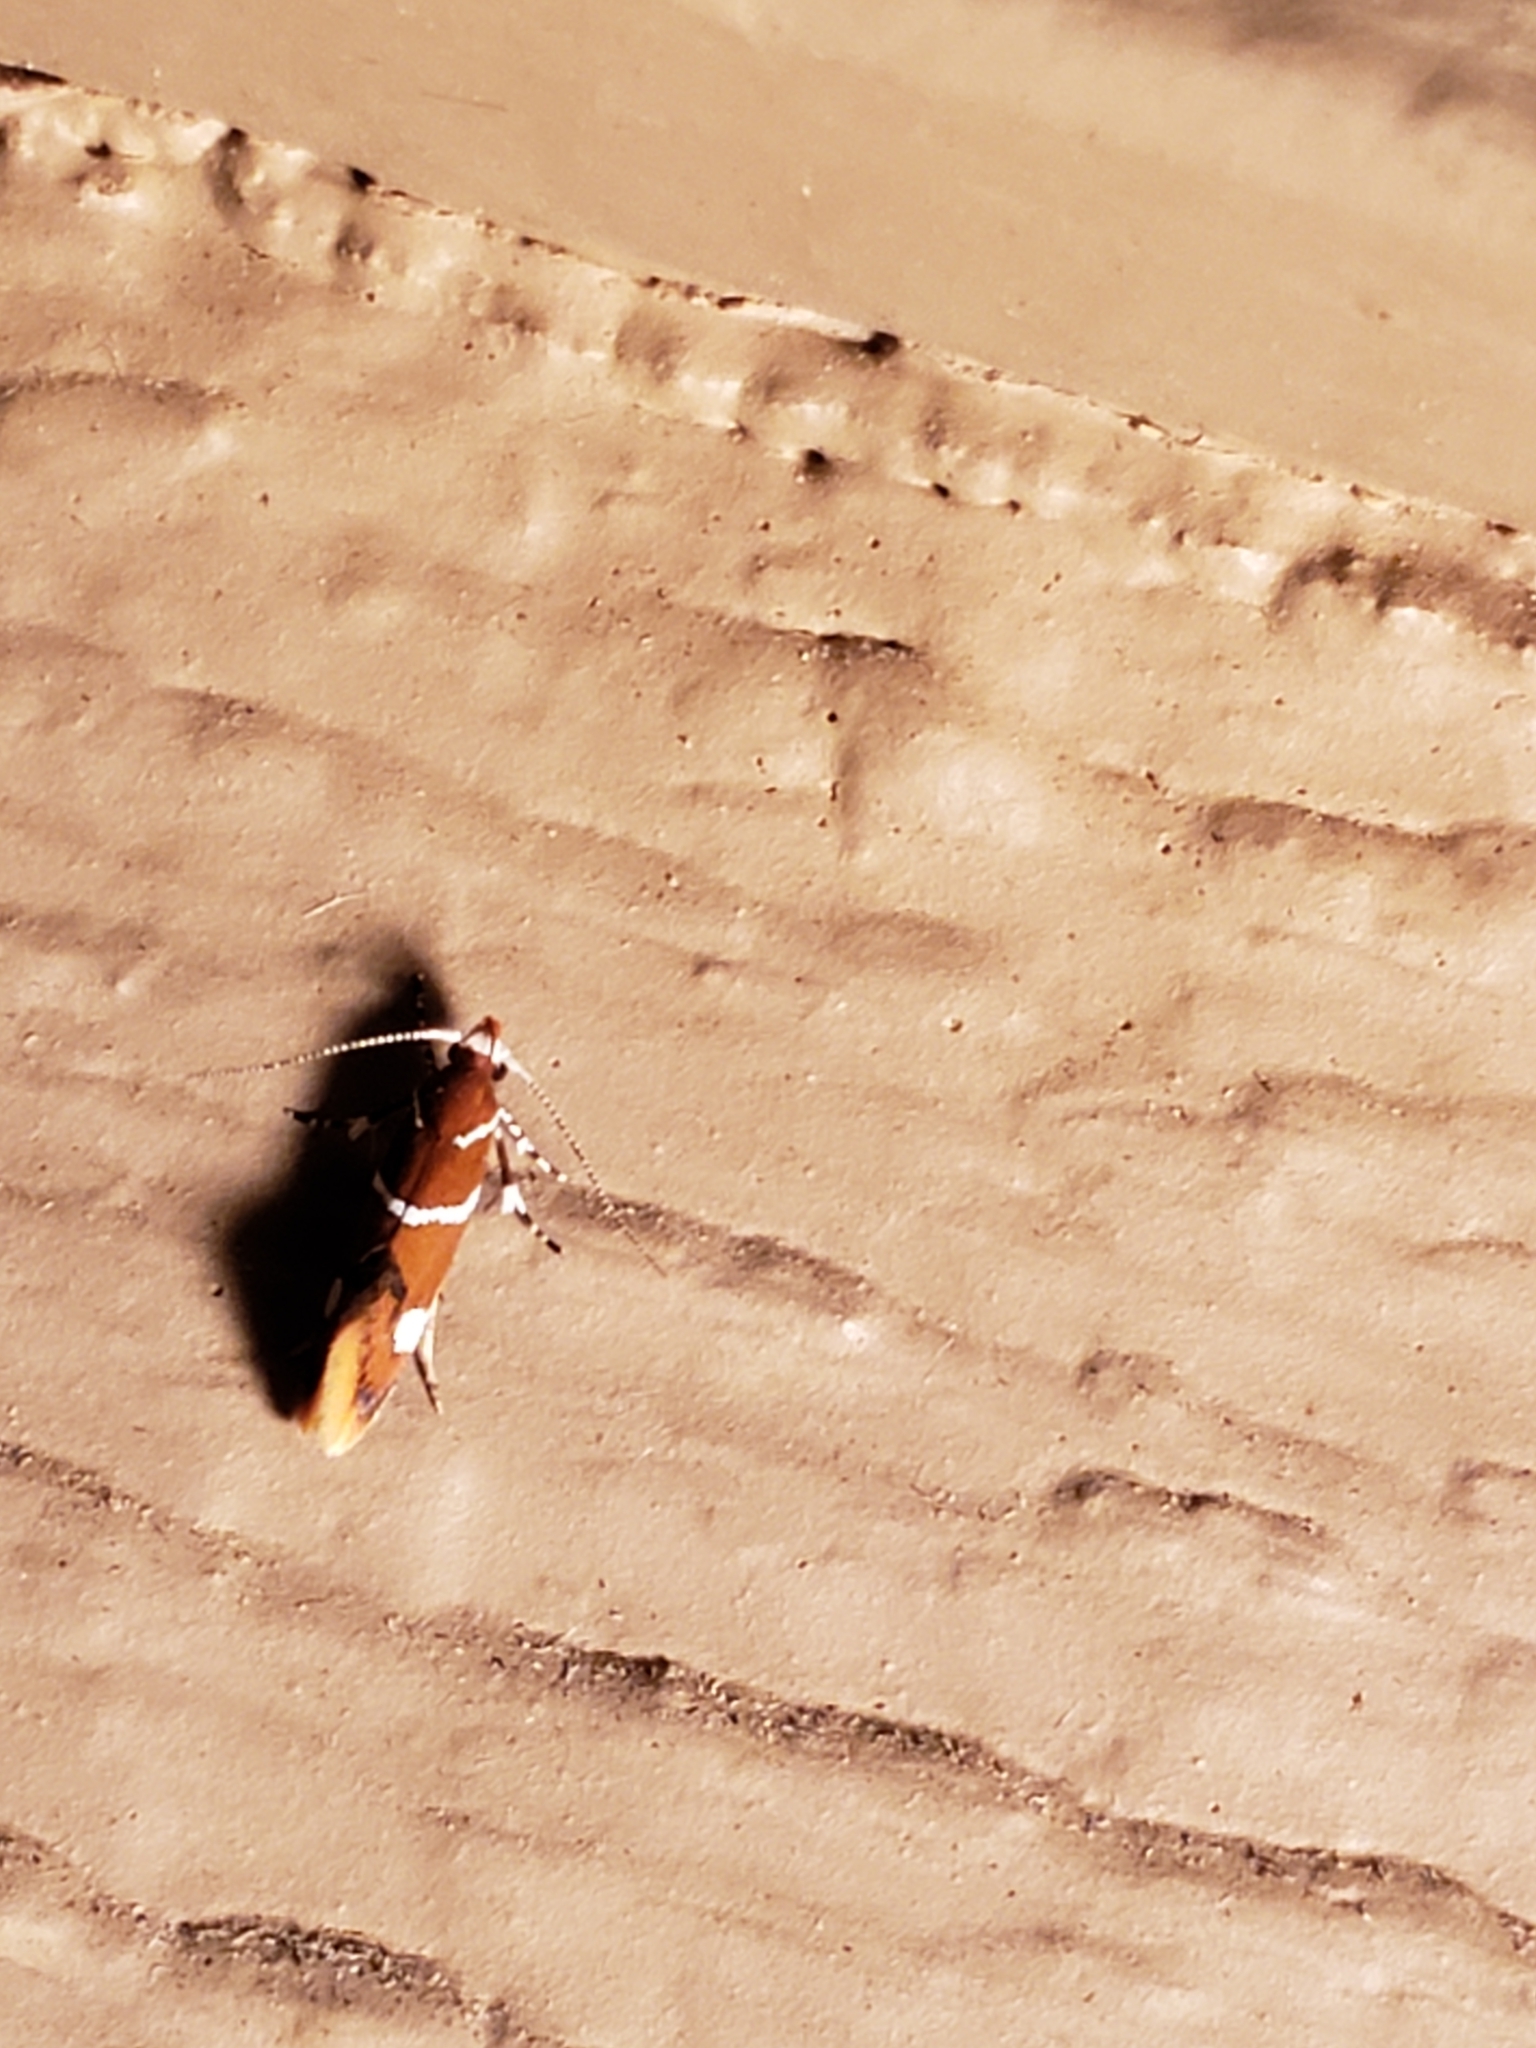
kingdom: Animalia
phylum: Arthropoda
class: Insecta
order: Lepidoptera
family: Oecophoridae
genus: Promalactis
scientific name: Promalactis suzukiella
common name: Moth
